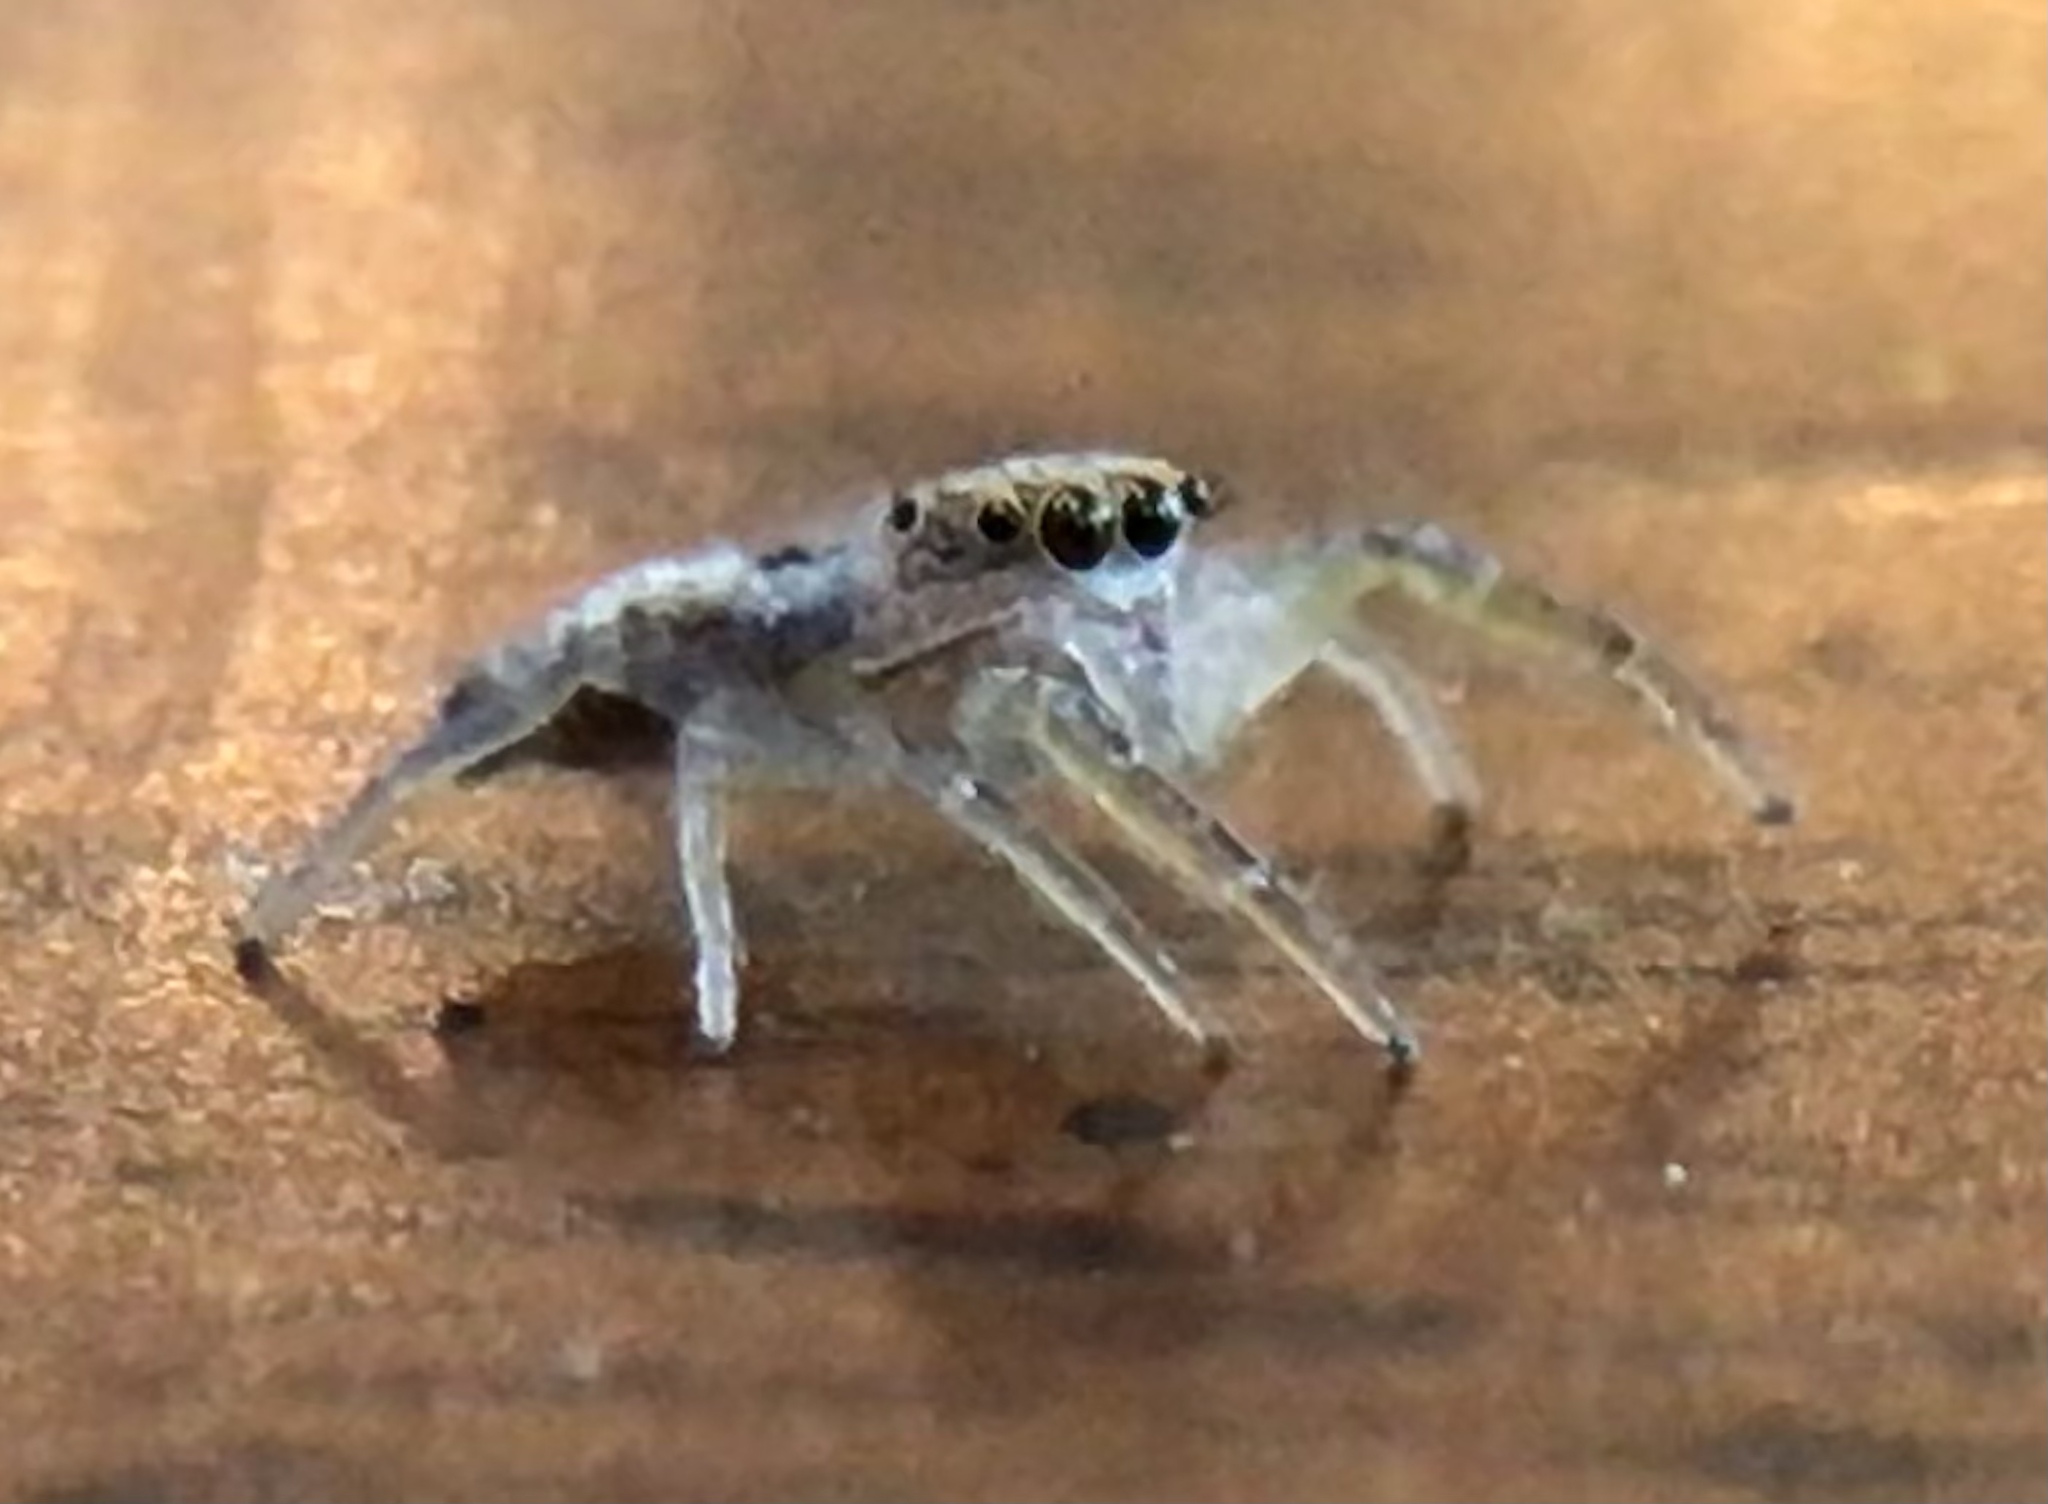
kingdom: Animalia
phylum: Arthropoda
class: Arachnida
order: Araneae
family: Salticidae
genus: Hentzia
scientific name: Hentzia mitrata
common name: White-jawed jumping spider
